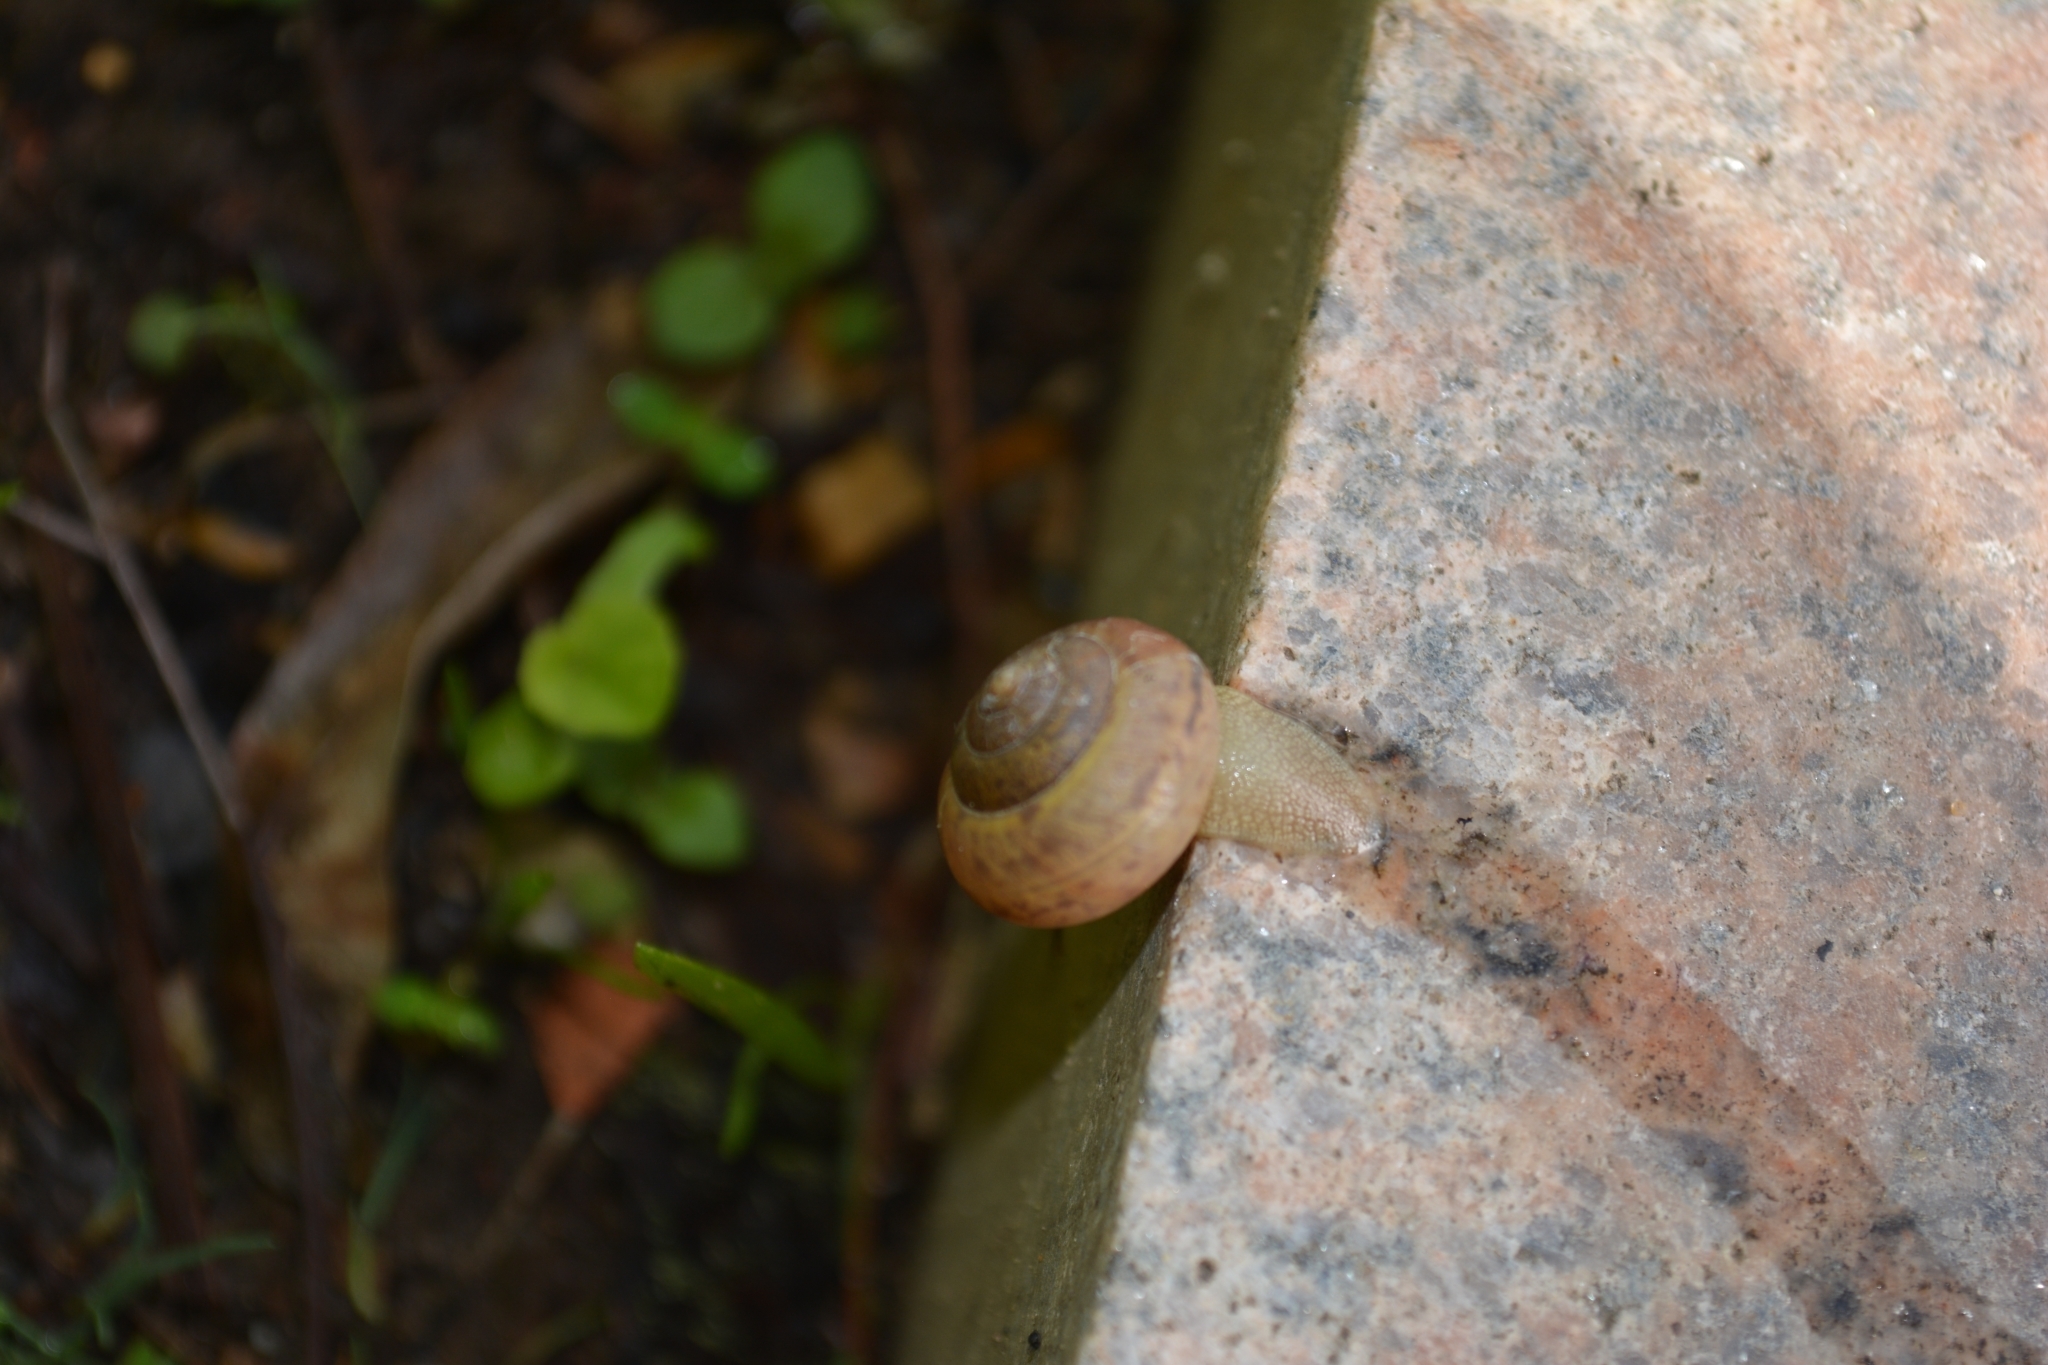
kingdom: Animalia
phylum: Mollusca
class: Gastropoda
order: Stylommatophora
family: Camaenidae
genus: Fruticicola
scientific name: Fruticicola fruticum
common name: Bush snail
